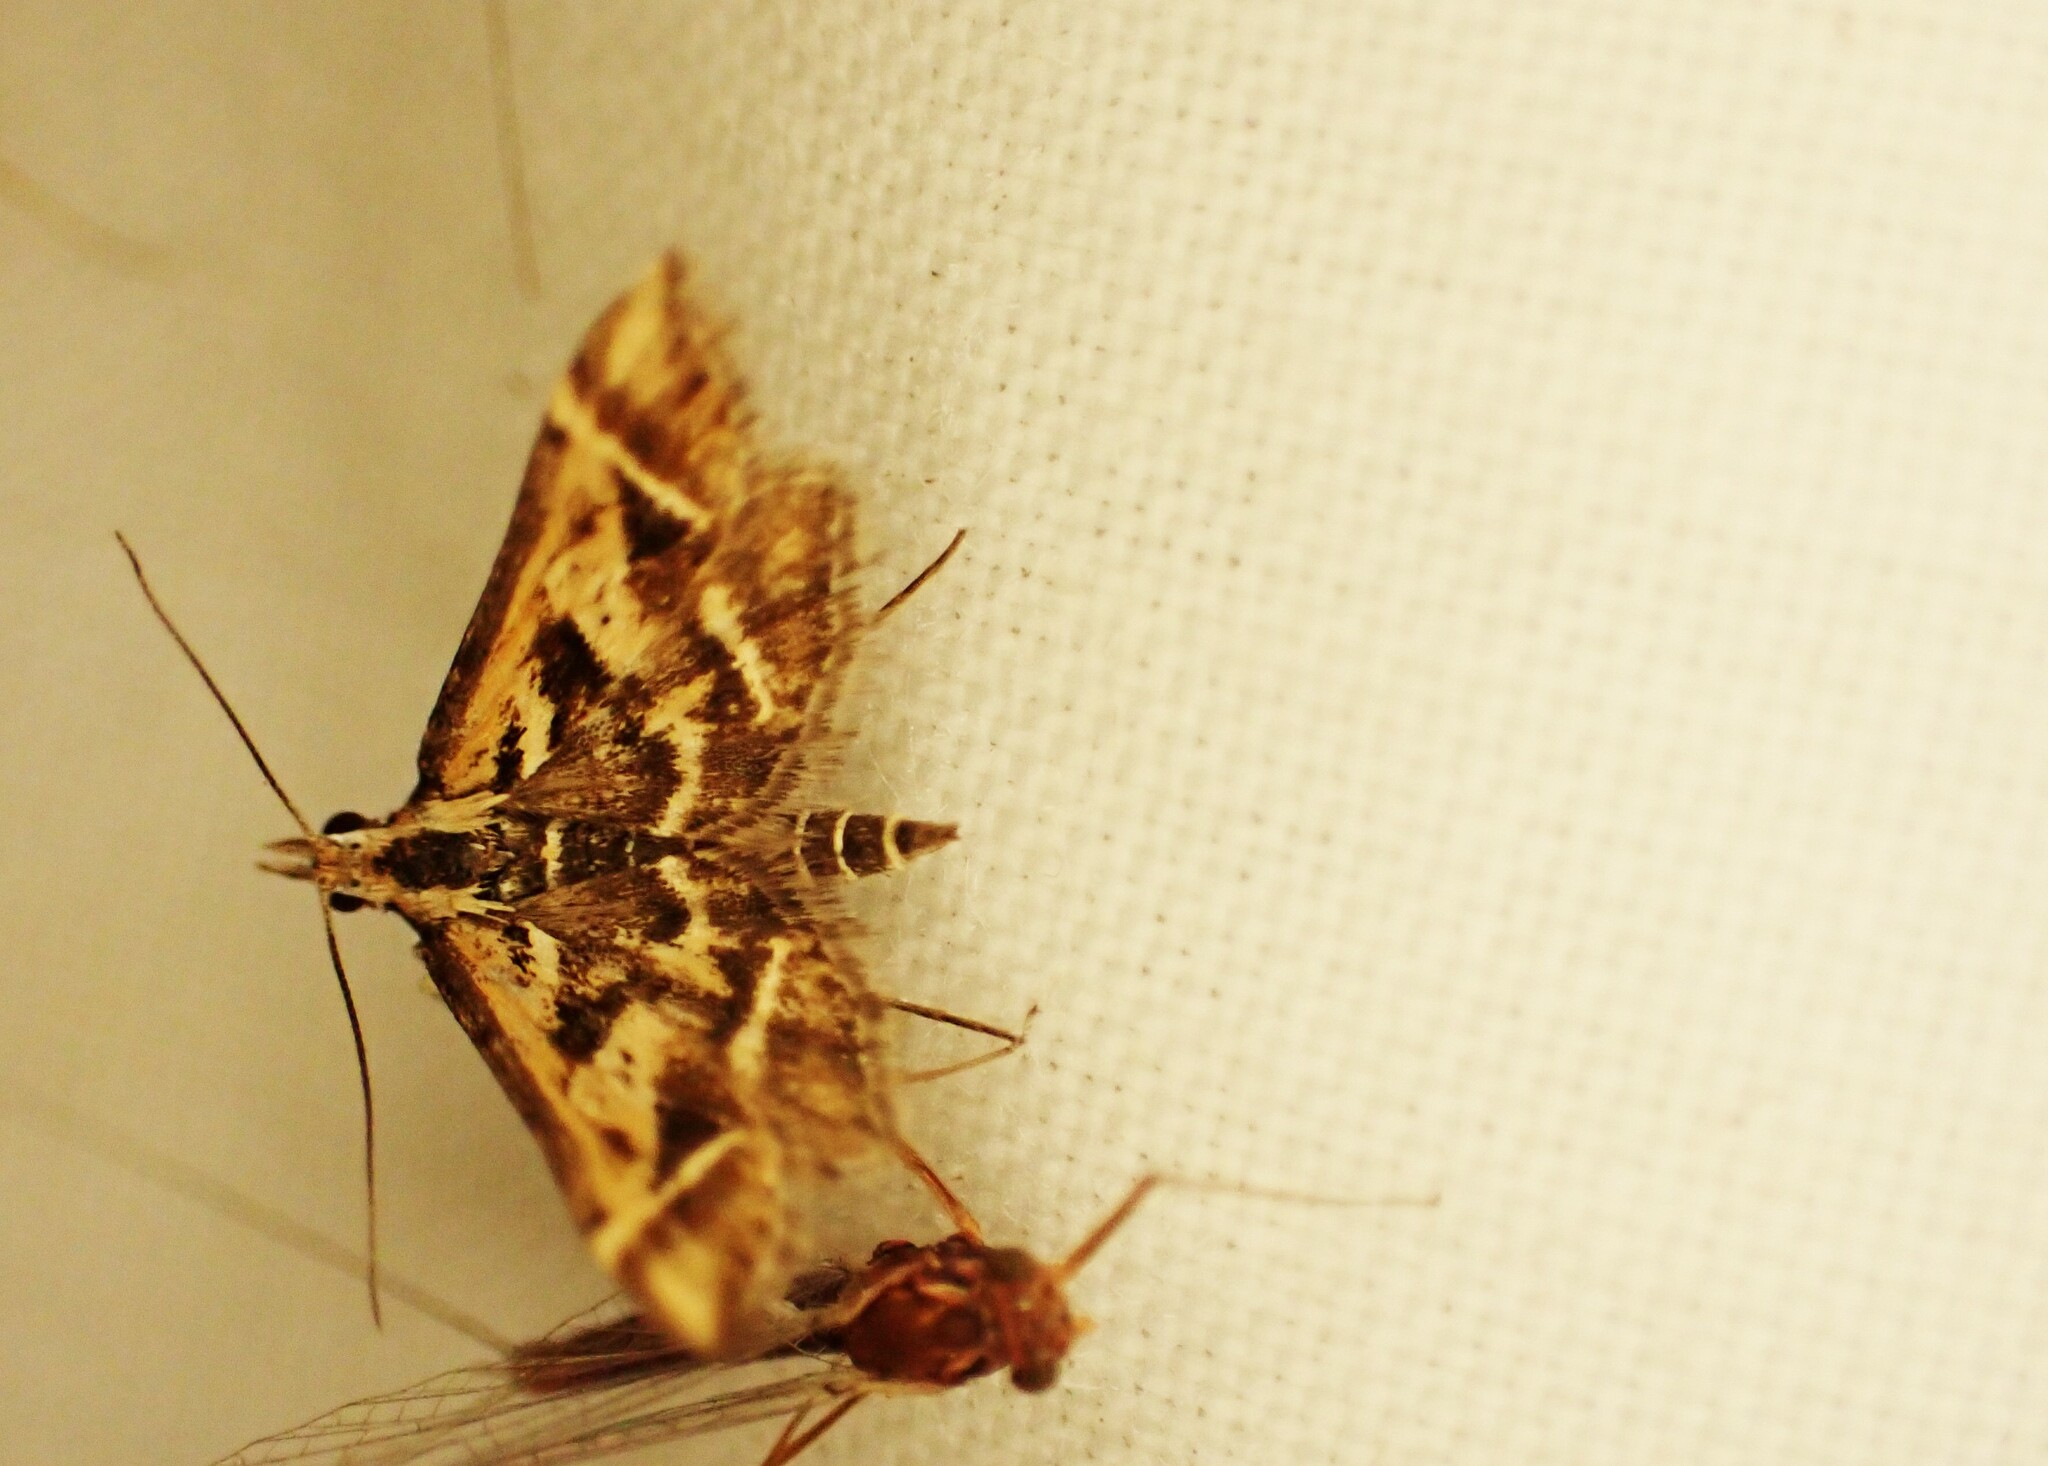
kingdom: Animalia
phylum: Arthropoda
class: Insecta
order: Lepidoptera
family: Crambidae
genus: Diasemia
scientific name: Diasemia grammalis
